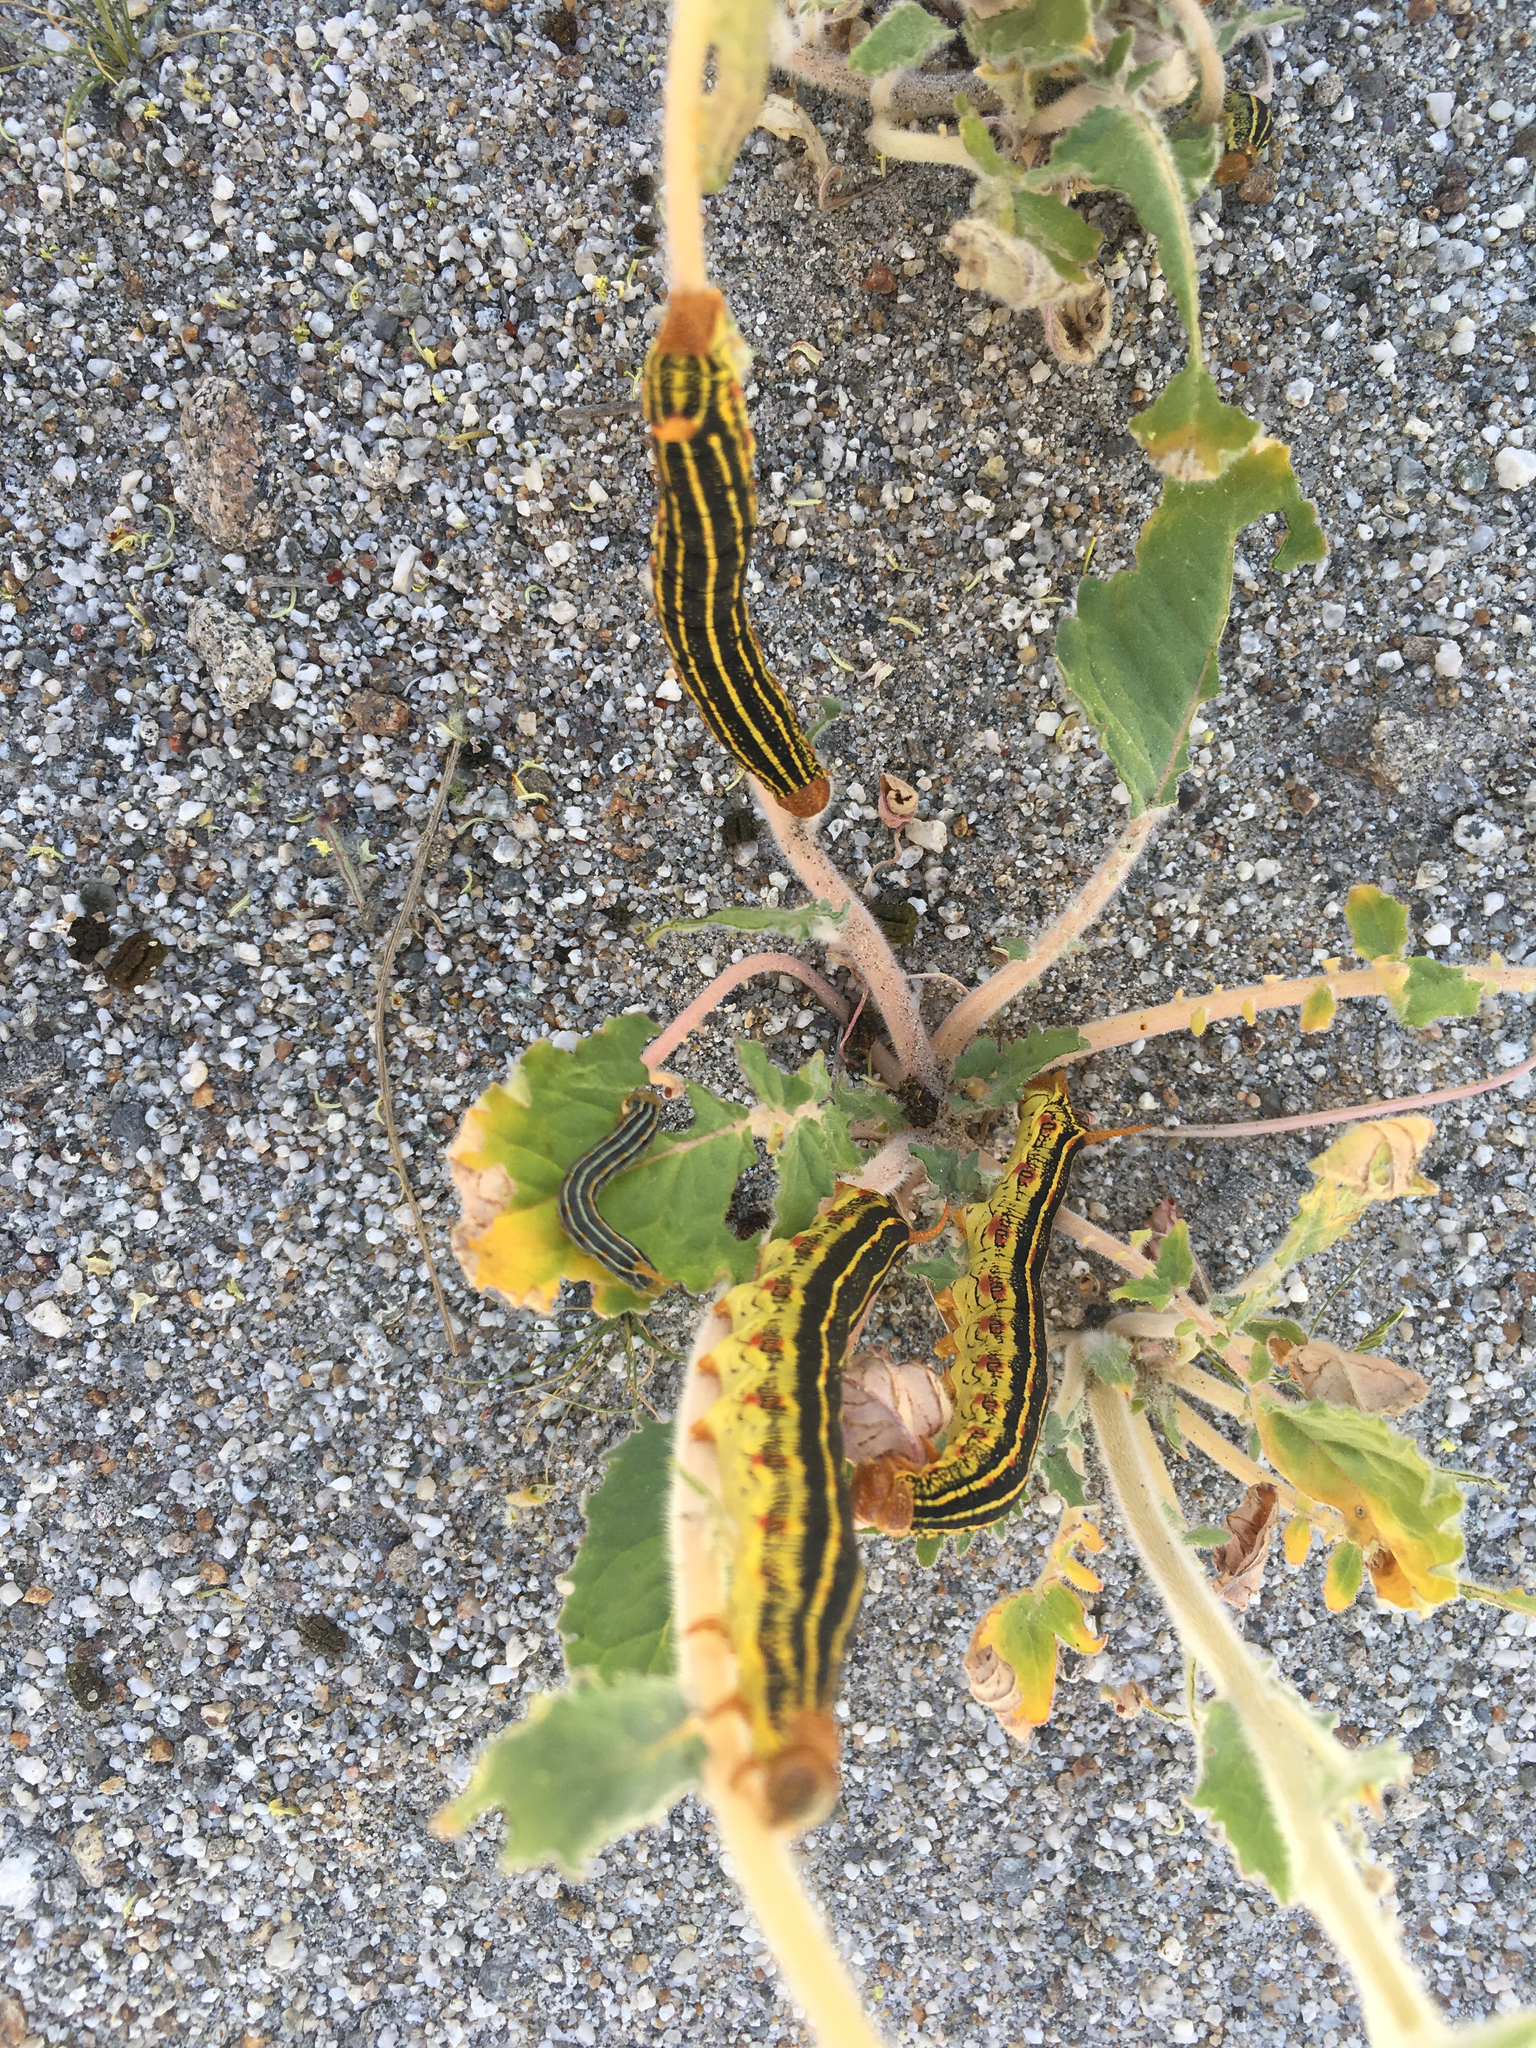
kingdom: Animalia
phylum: Arthropoda
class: Insecta
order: Lepidoptera
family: Sphingidae
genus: Hyles
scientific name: Hyles lineata
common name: White-lined sphinx
